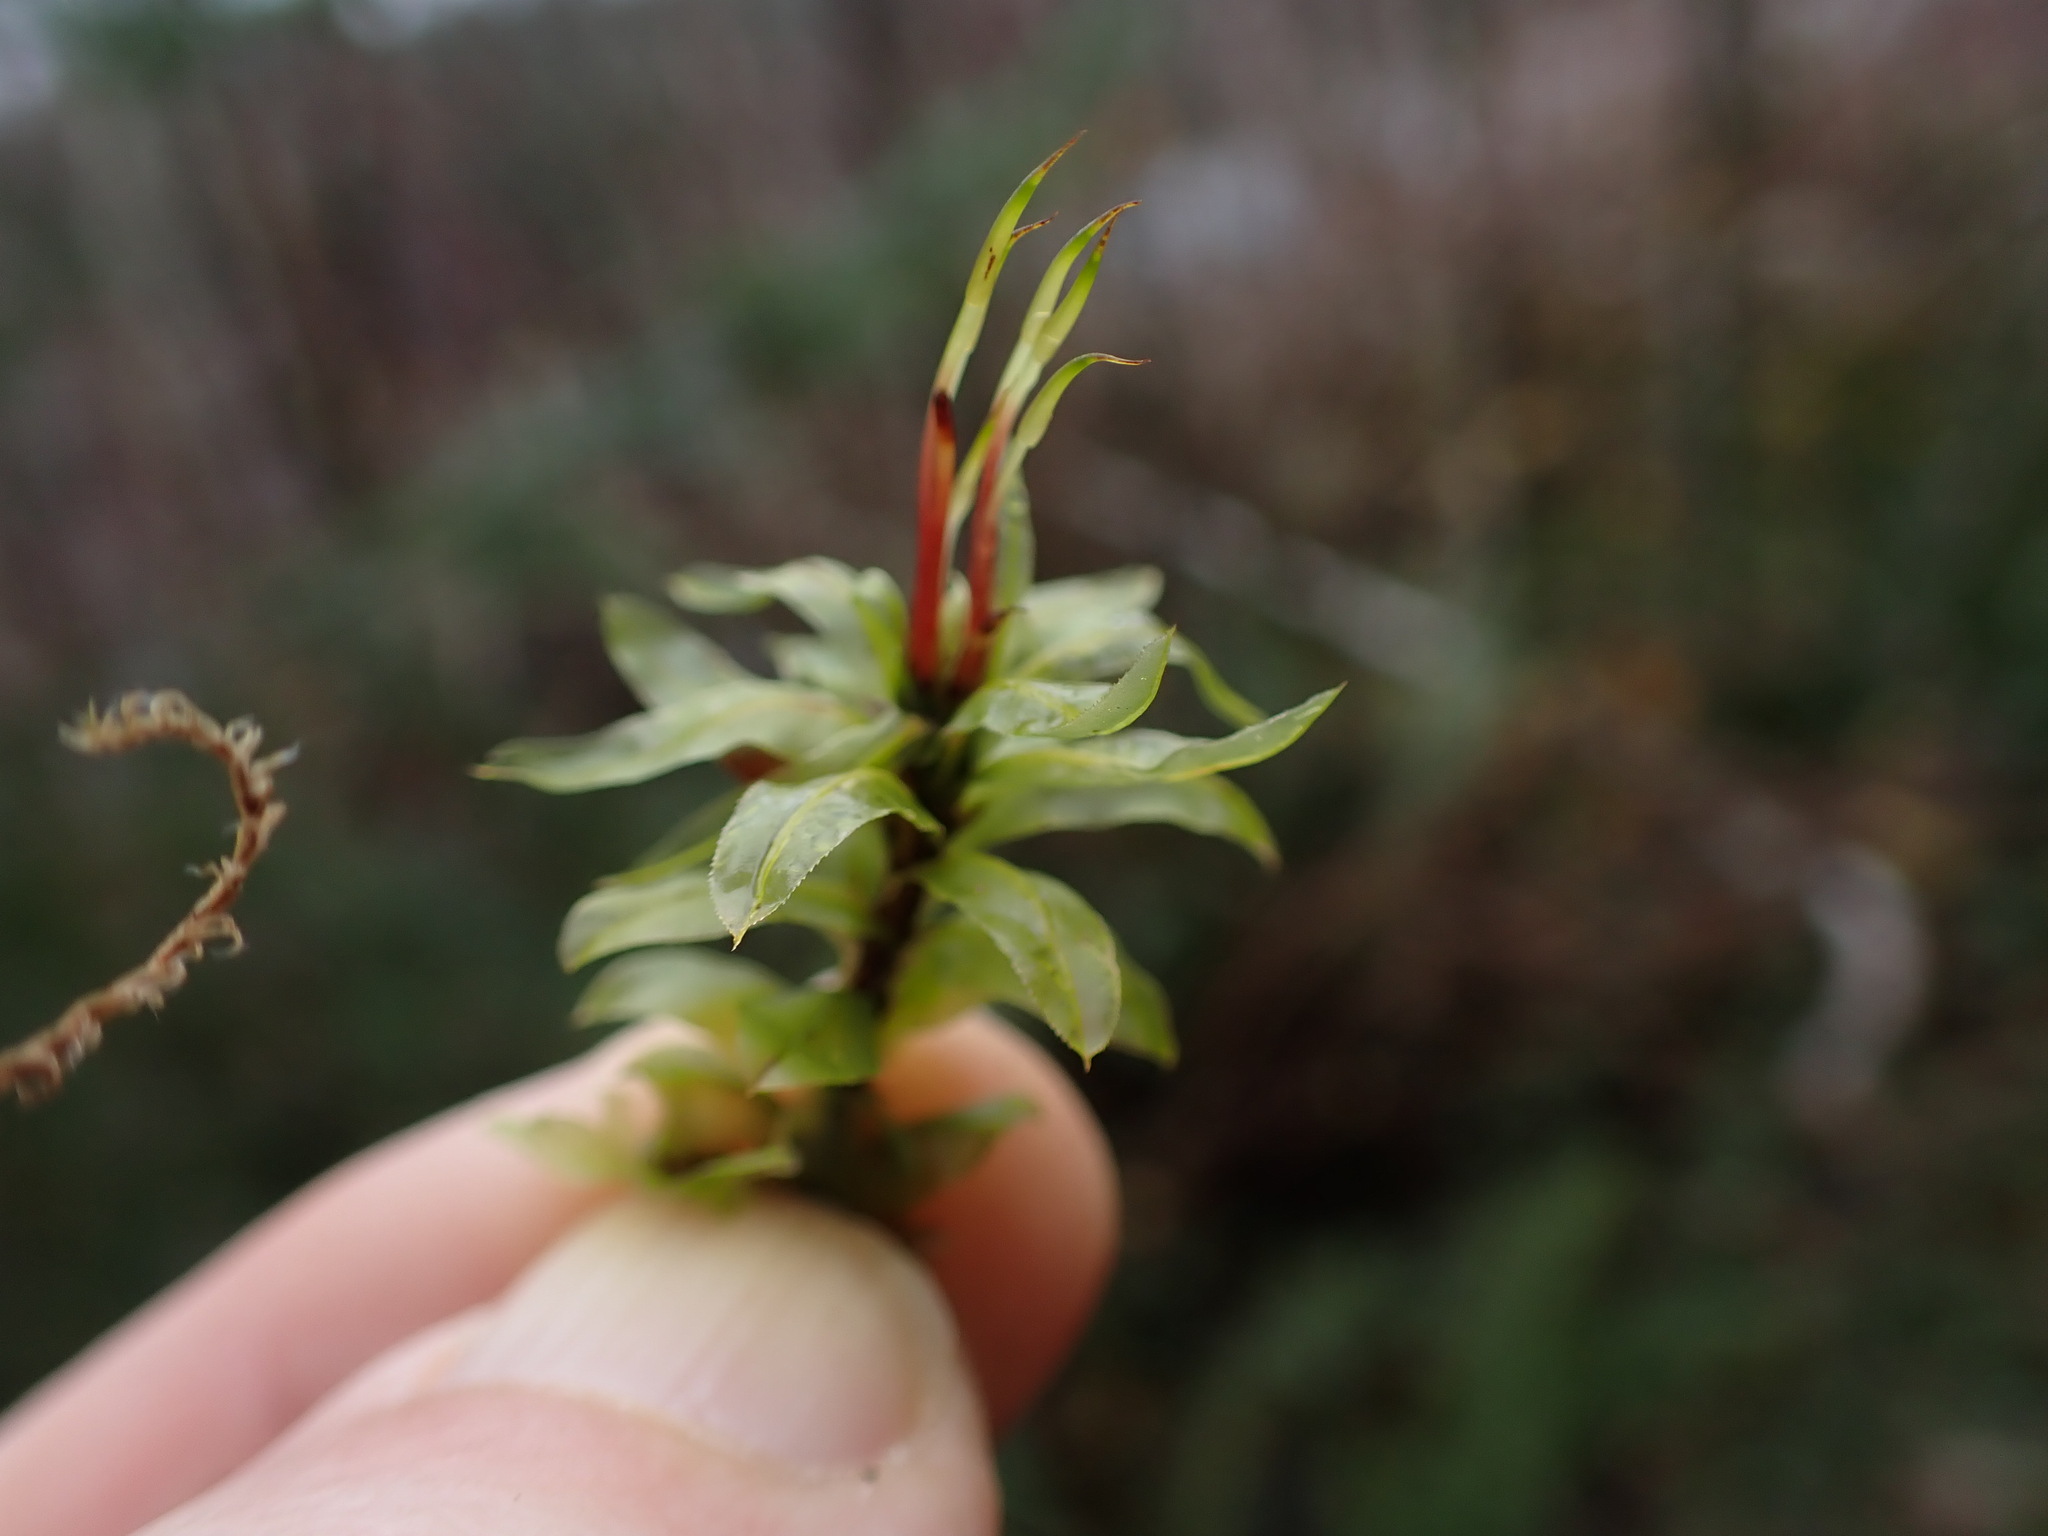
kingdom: Plantae
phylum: Bryophyta
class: Bryopsida
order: Bryales
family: Mniaceae
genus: Plagiomnium
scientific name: Plagiomnium insigne
